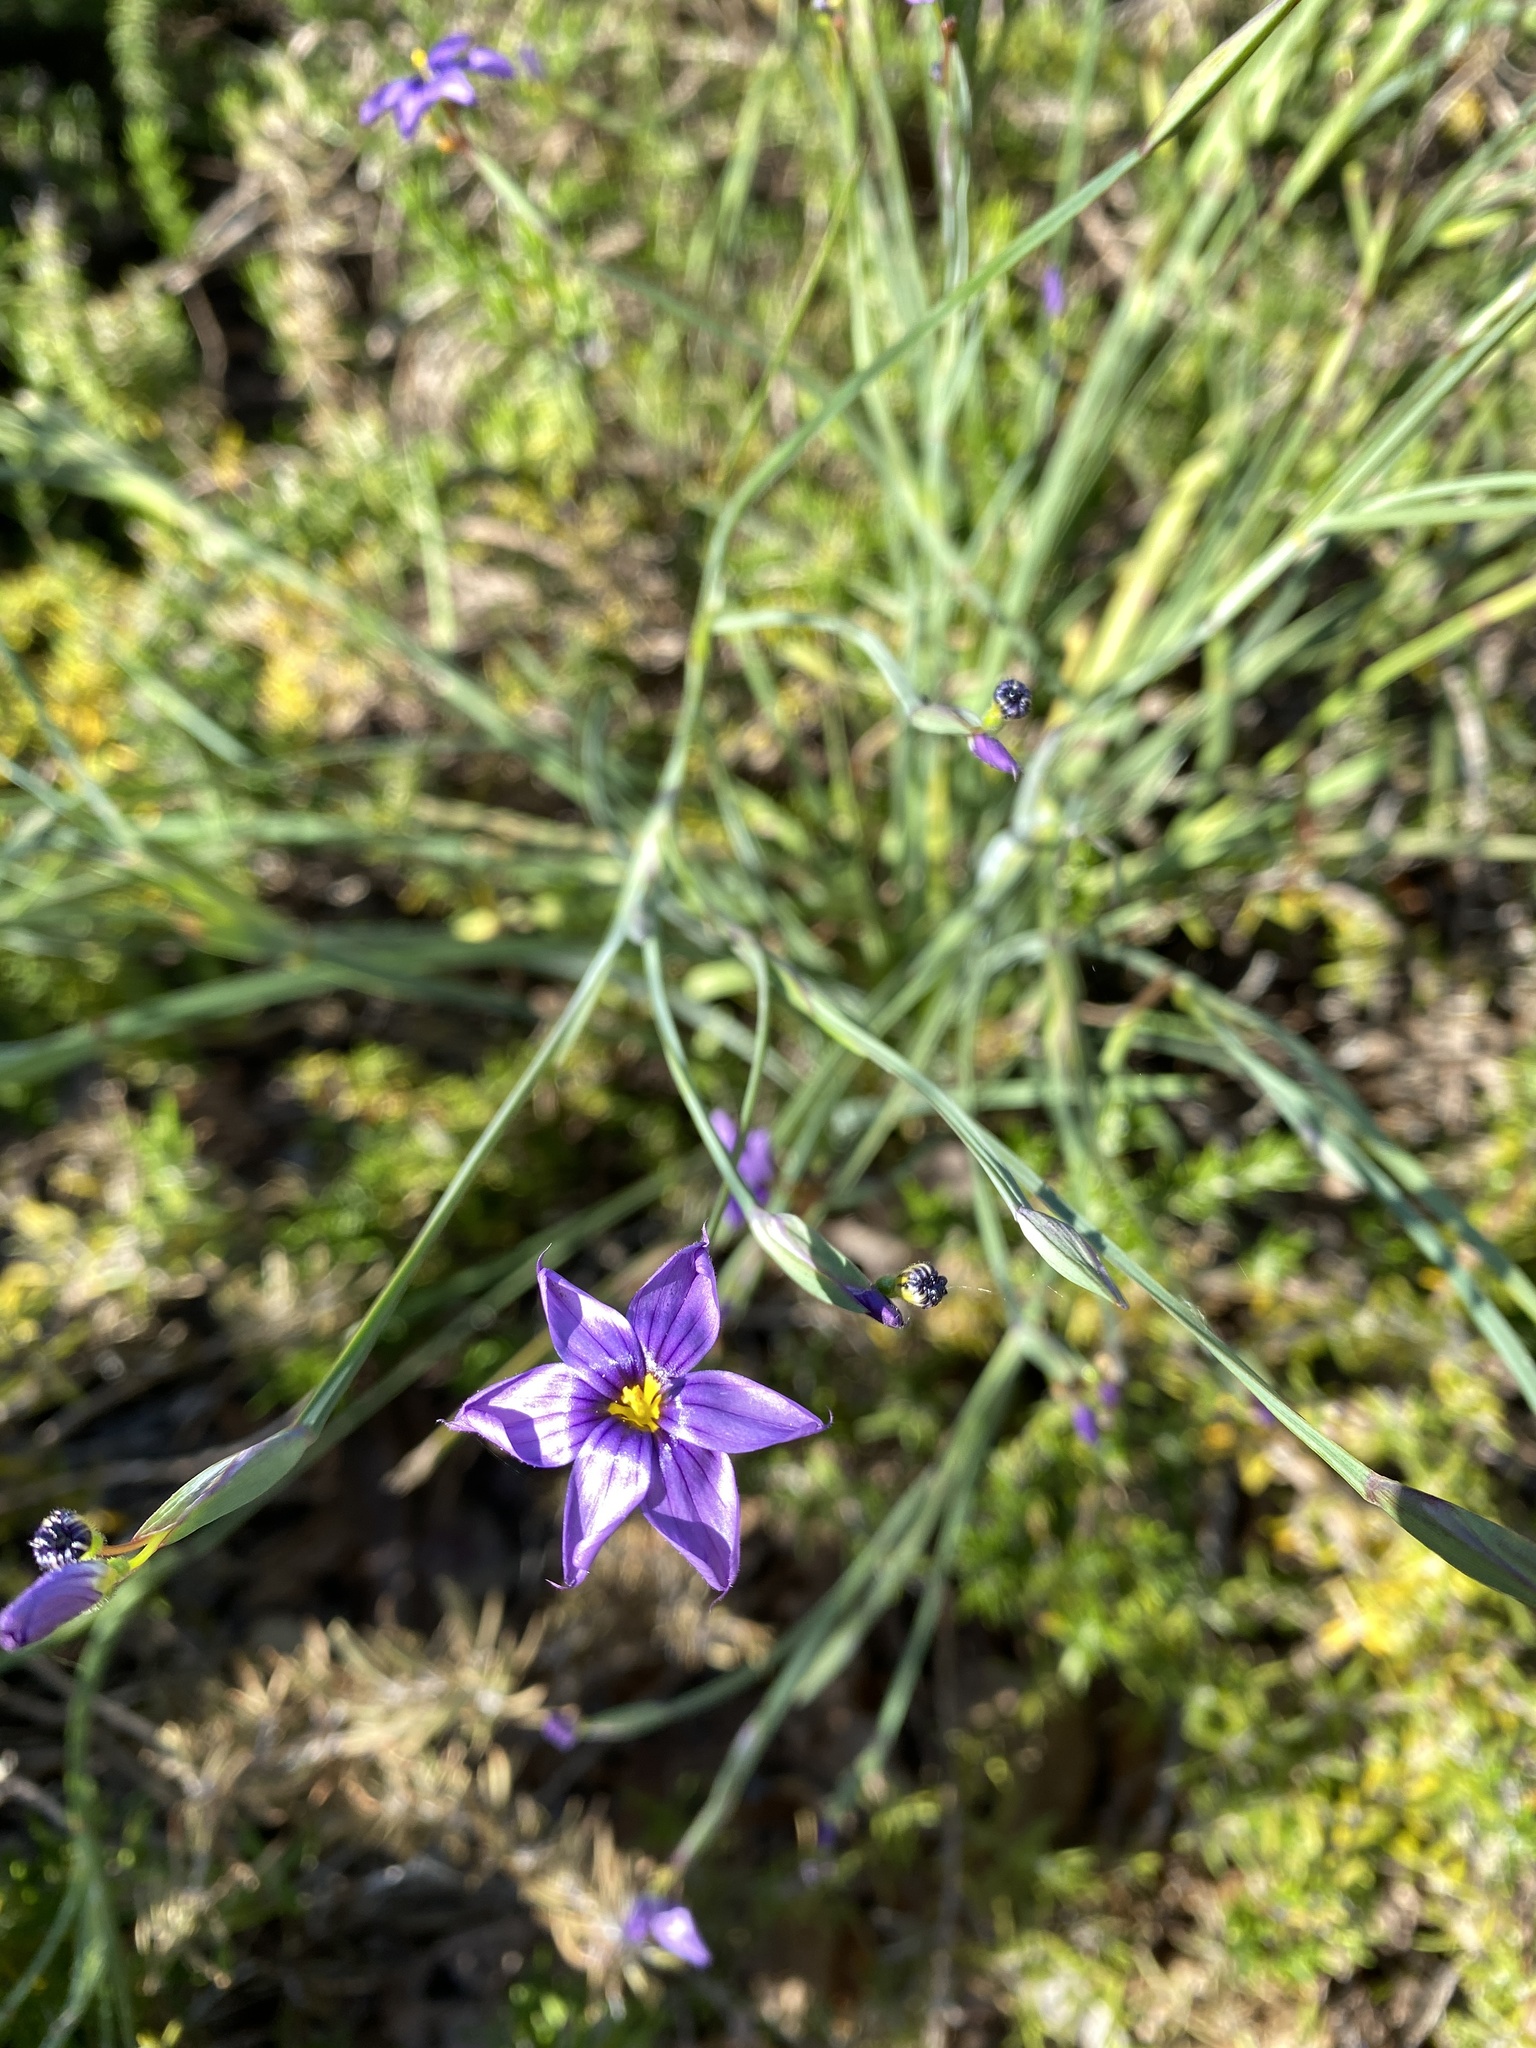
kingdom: Plantae
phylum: Tracheophyta
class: Liliopsida
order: Asparagales
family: Iridaceae
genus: Sisyrinchium
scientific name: Sisyrinchium bellum
